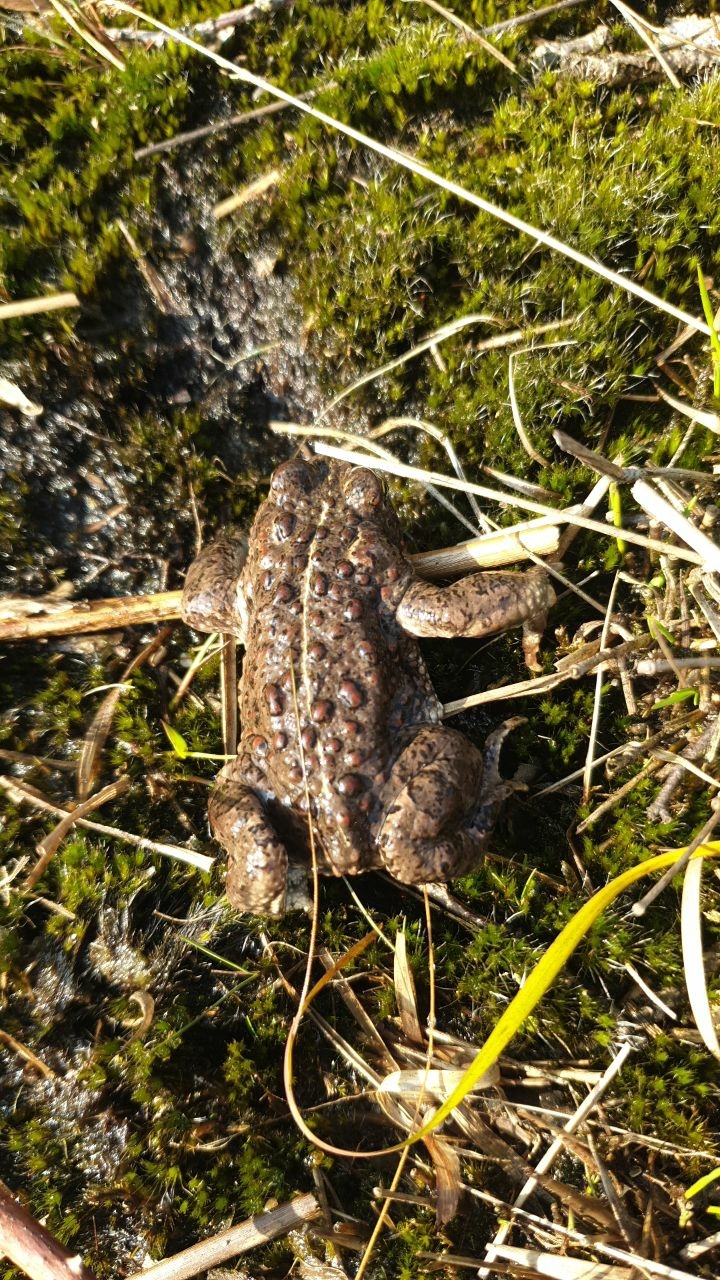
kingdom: Animalia
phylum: Chordata
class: Amphibia
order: Anura
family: Bufonidae
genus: Epidalea
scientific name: Epidalea calamita
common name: Natterjack toad
